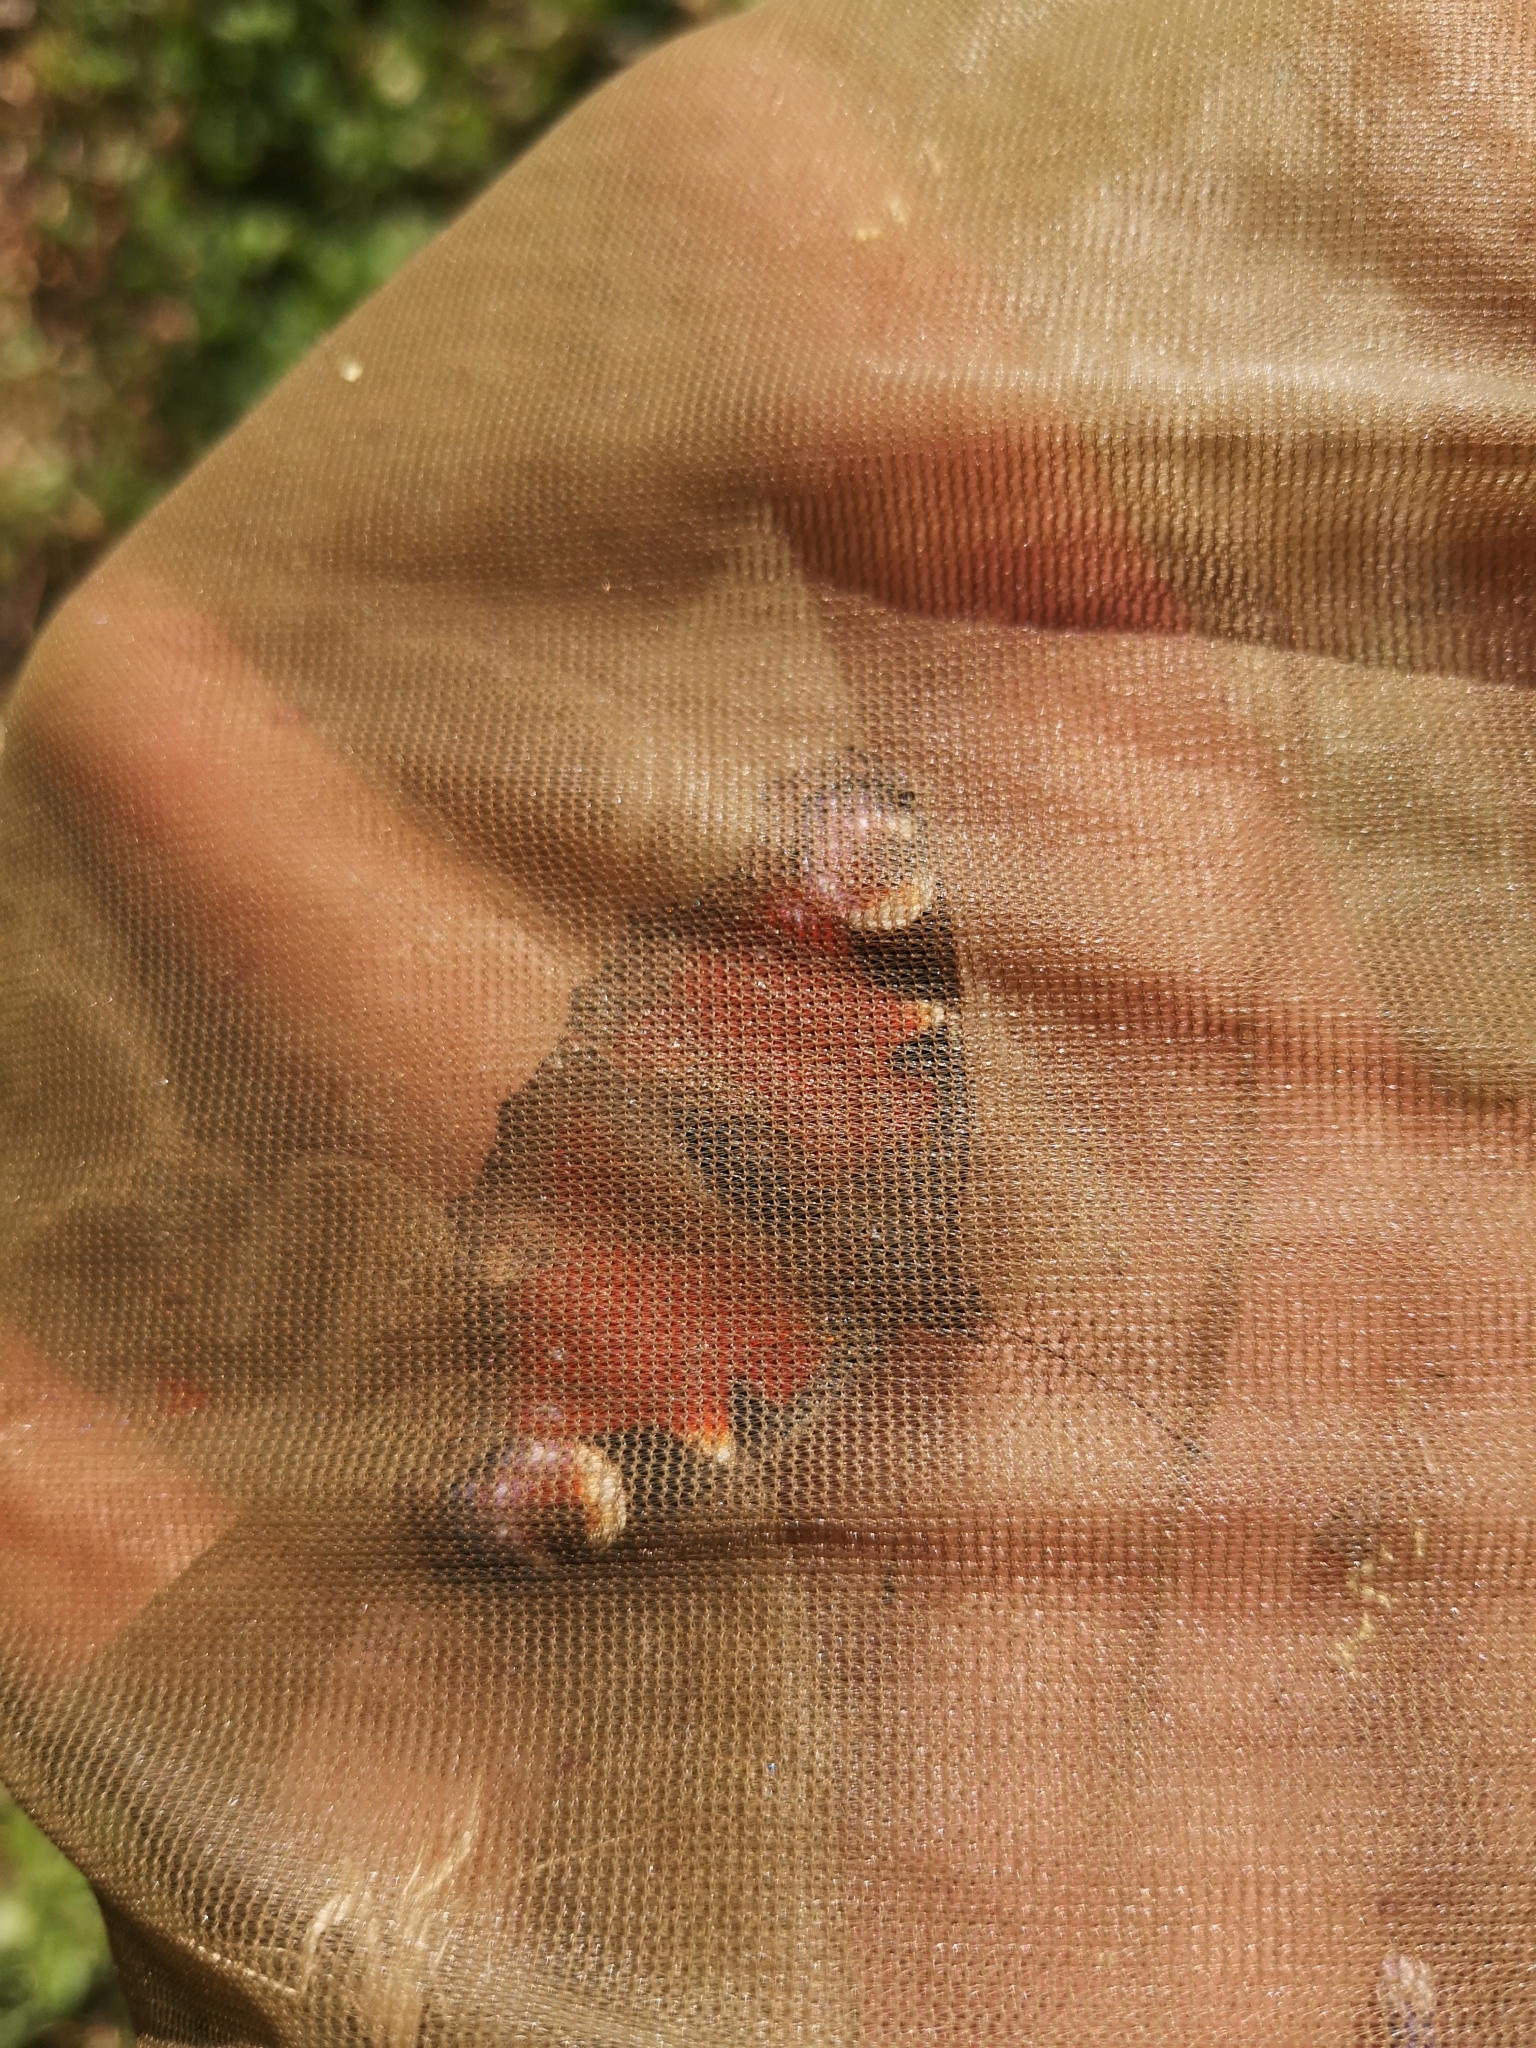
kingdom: Animalia
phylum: Arthropoda
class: Insecta
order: Lepidoptera
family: Nymphalidae
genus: Aglais
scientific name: Aglais io
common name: Peacock
